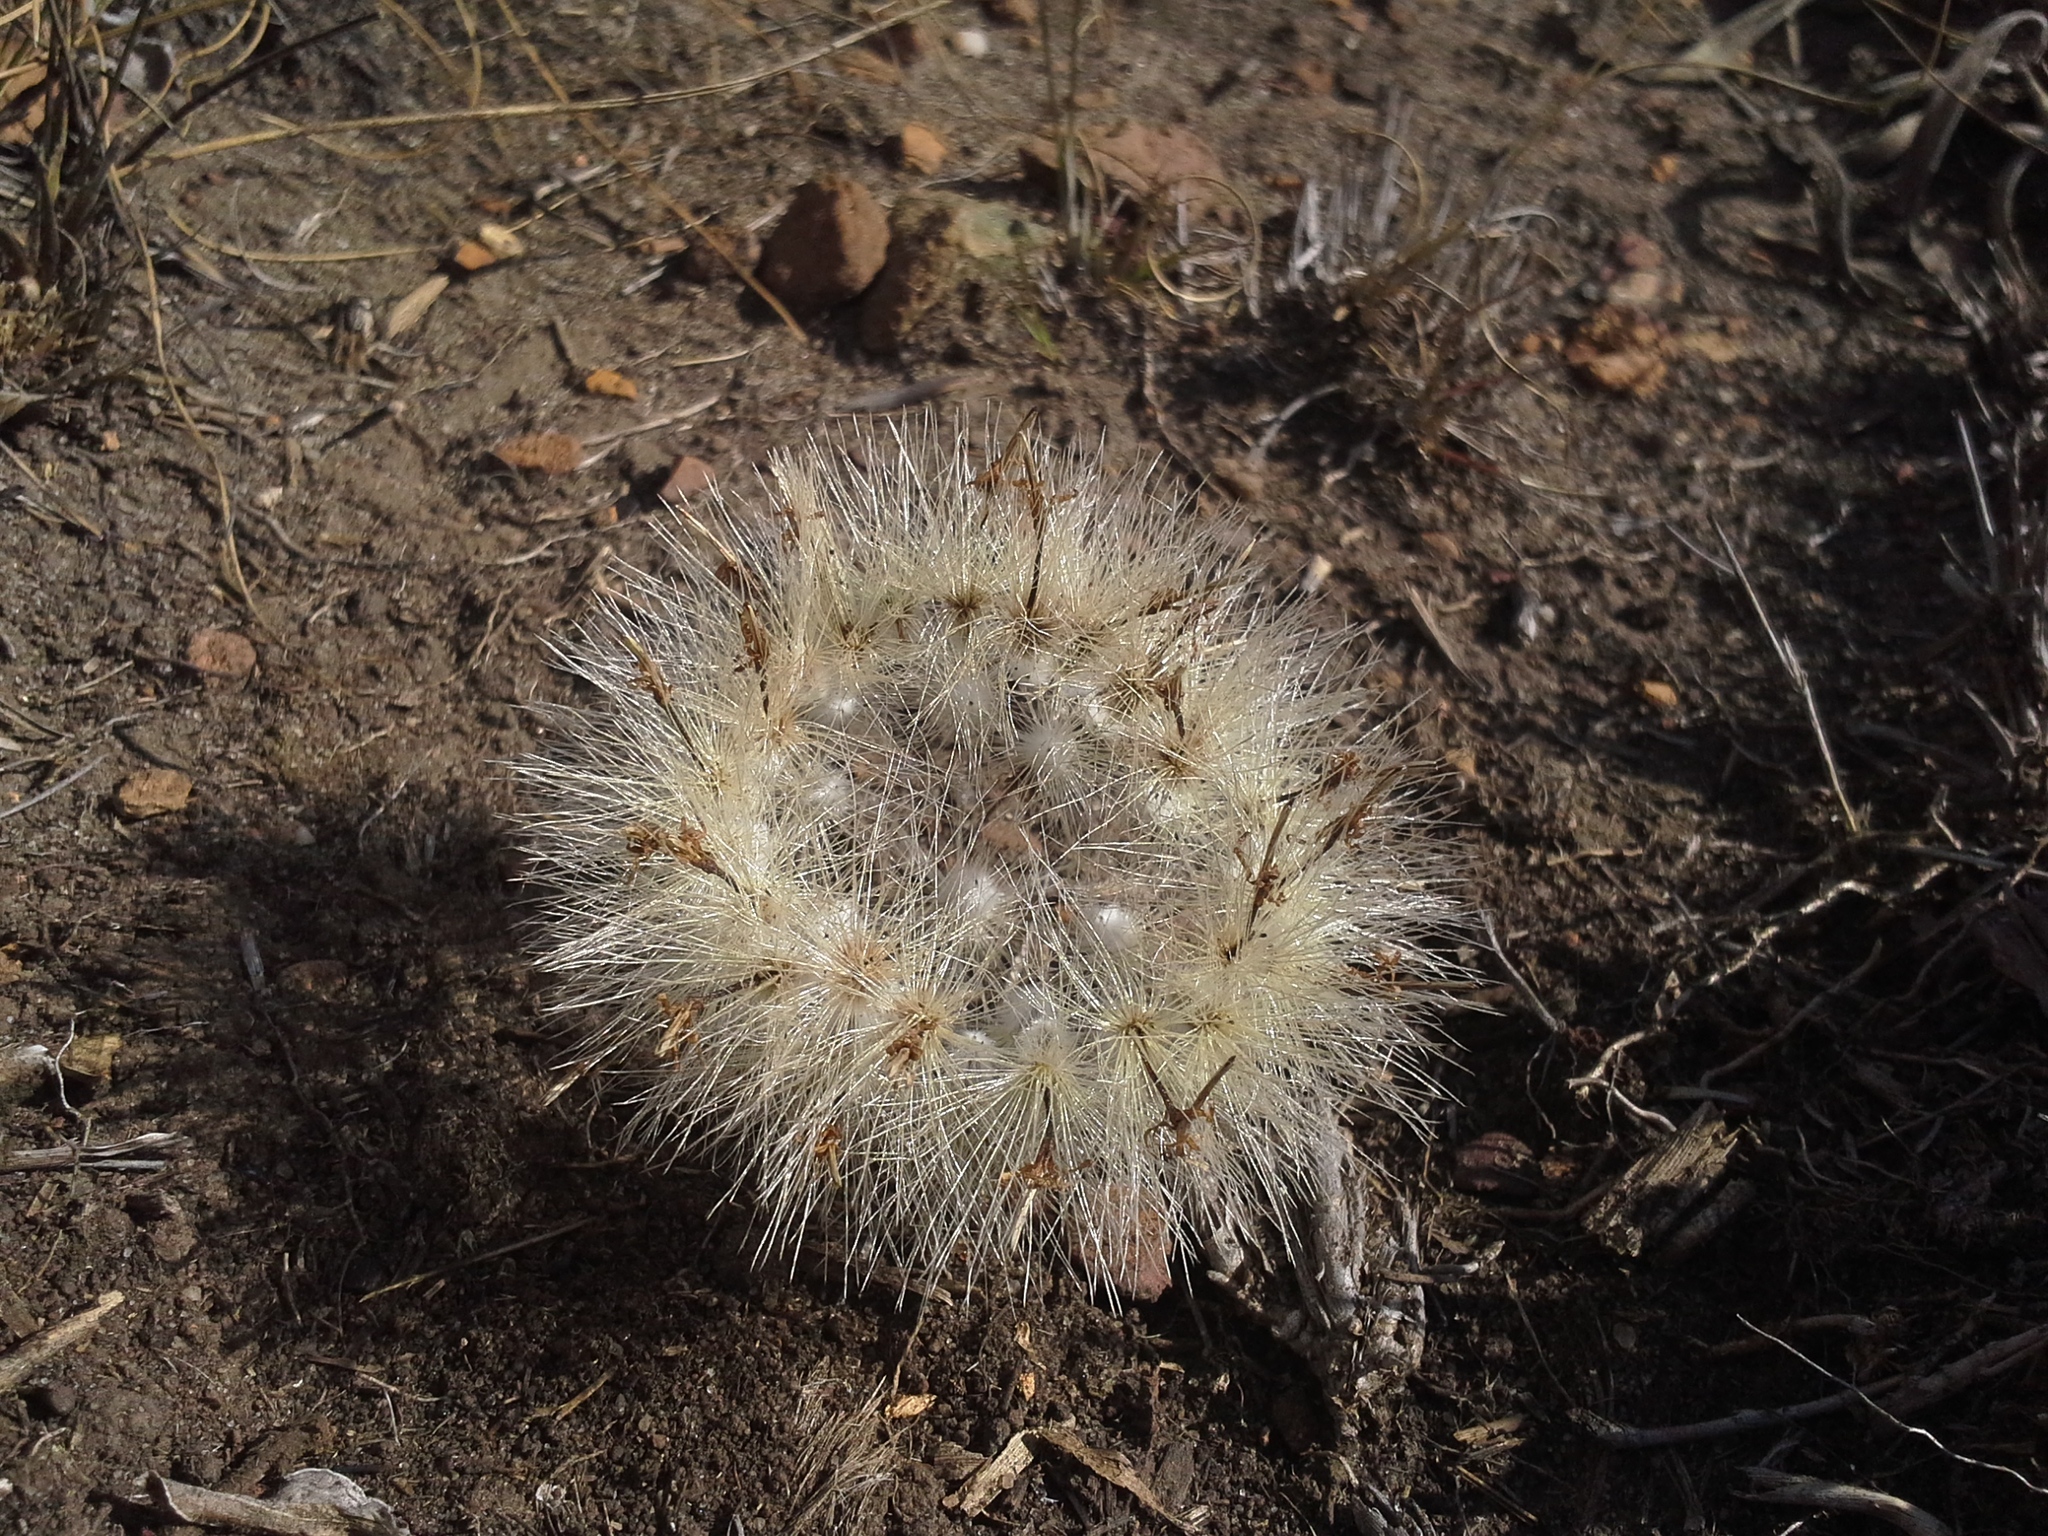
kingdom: Plantae
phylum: Tracheophyta
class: Magnoliopsida
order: Asterales
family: Asteraceae
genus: Dicoma
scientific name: Dicoma anomala
